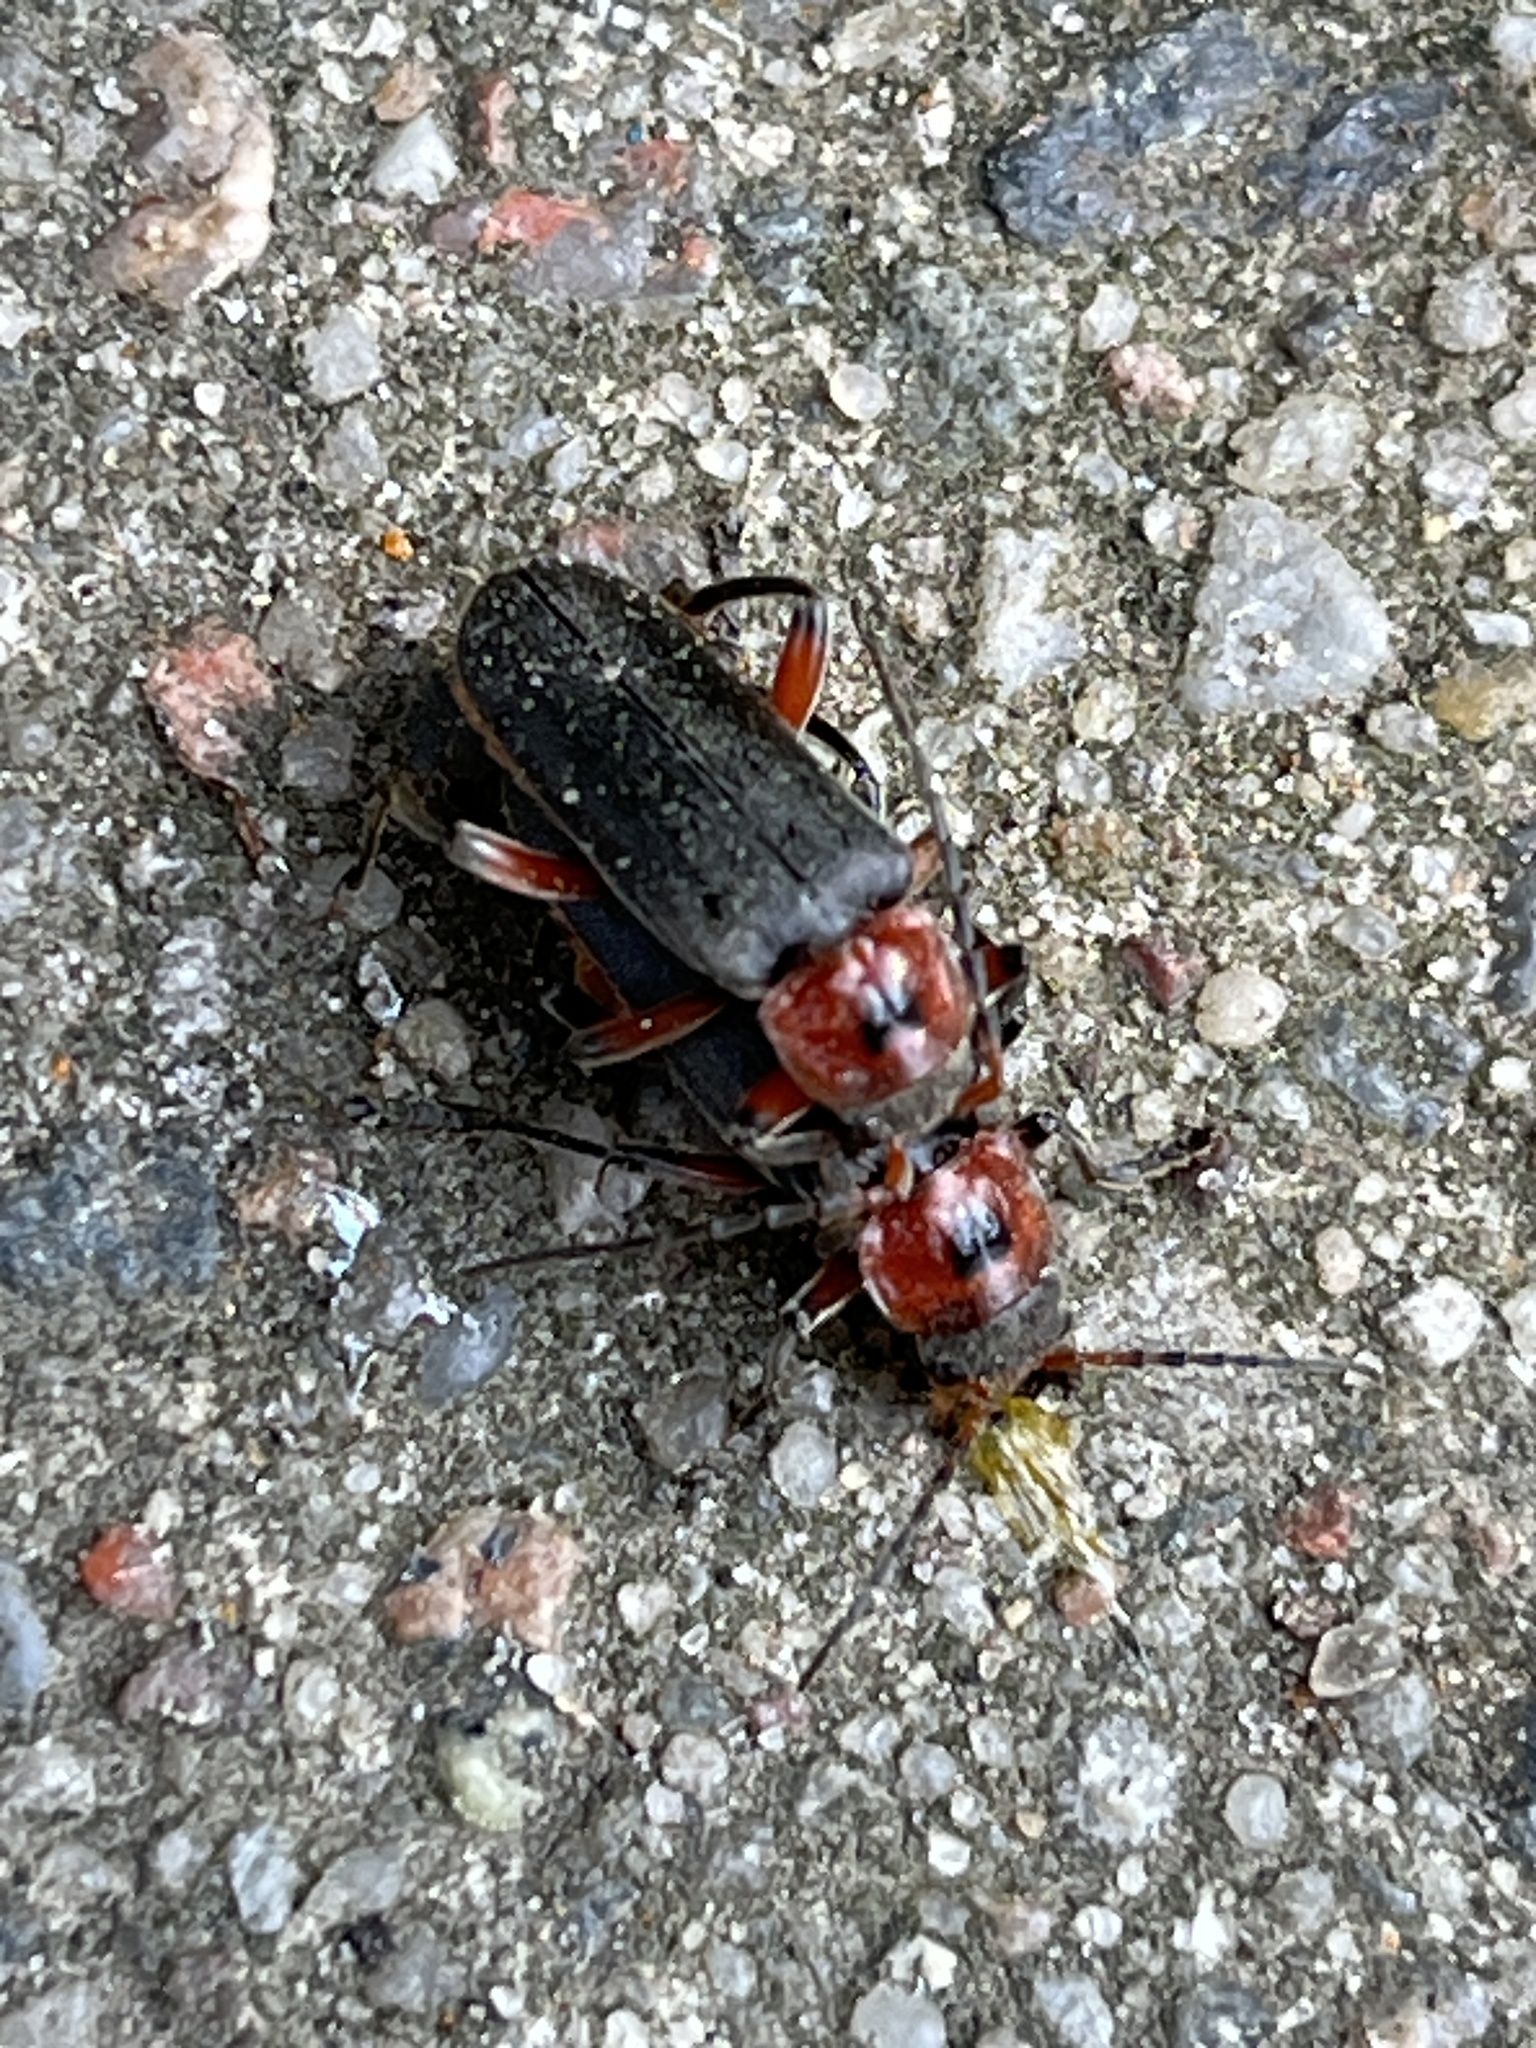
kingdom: Animalia
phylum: Arthropoda
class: Insecta
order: Coleoptera
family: Cantharidae
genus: Cantharis
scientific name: Cantharis rustica
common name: Soldier beetle
